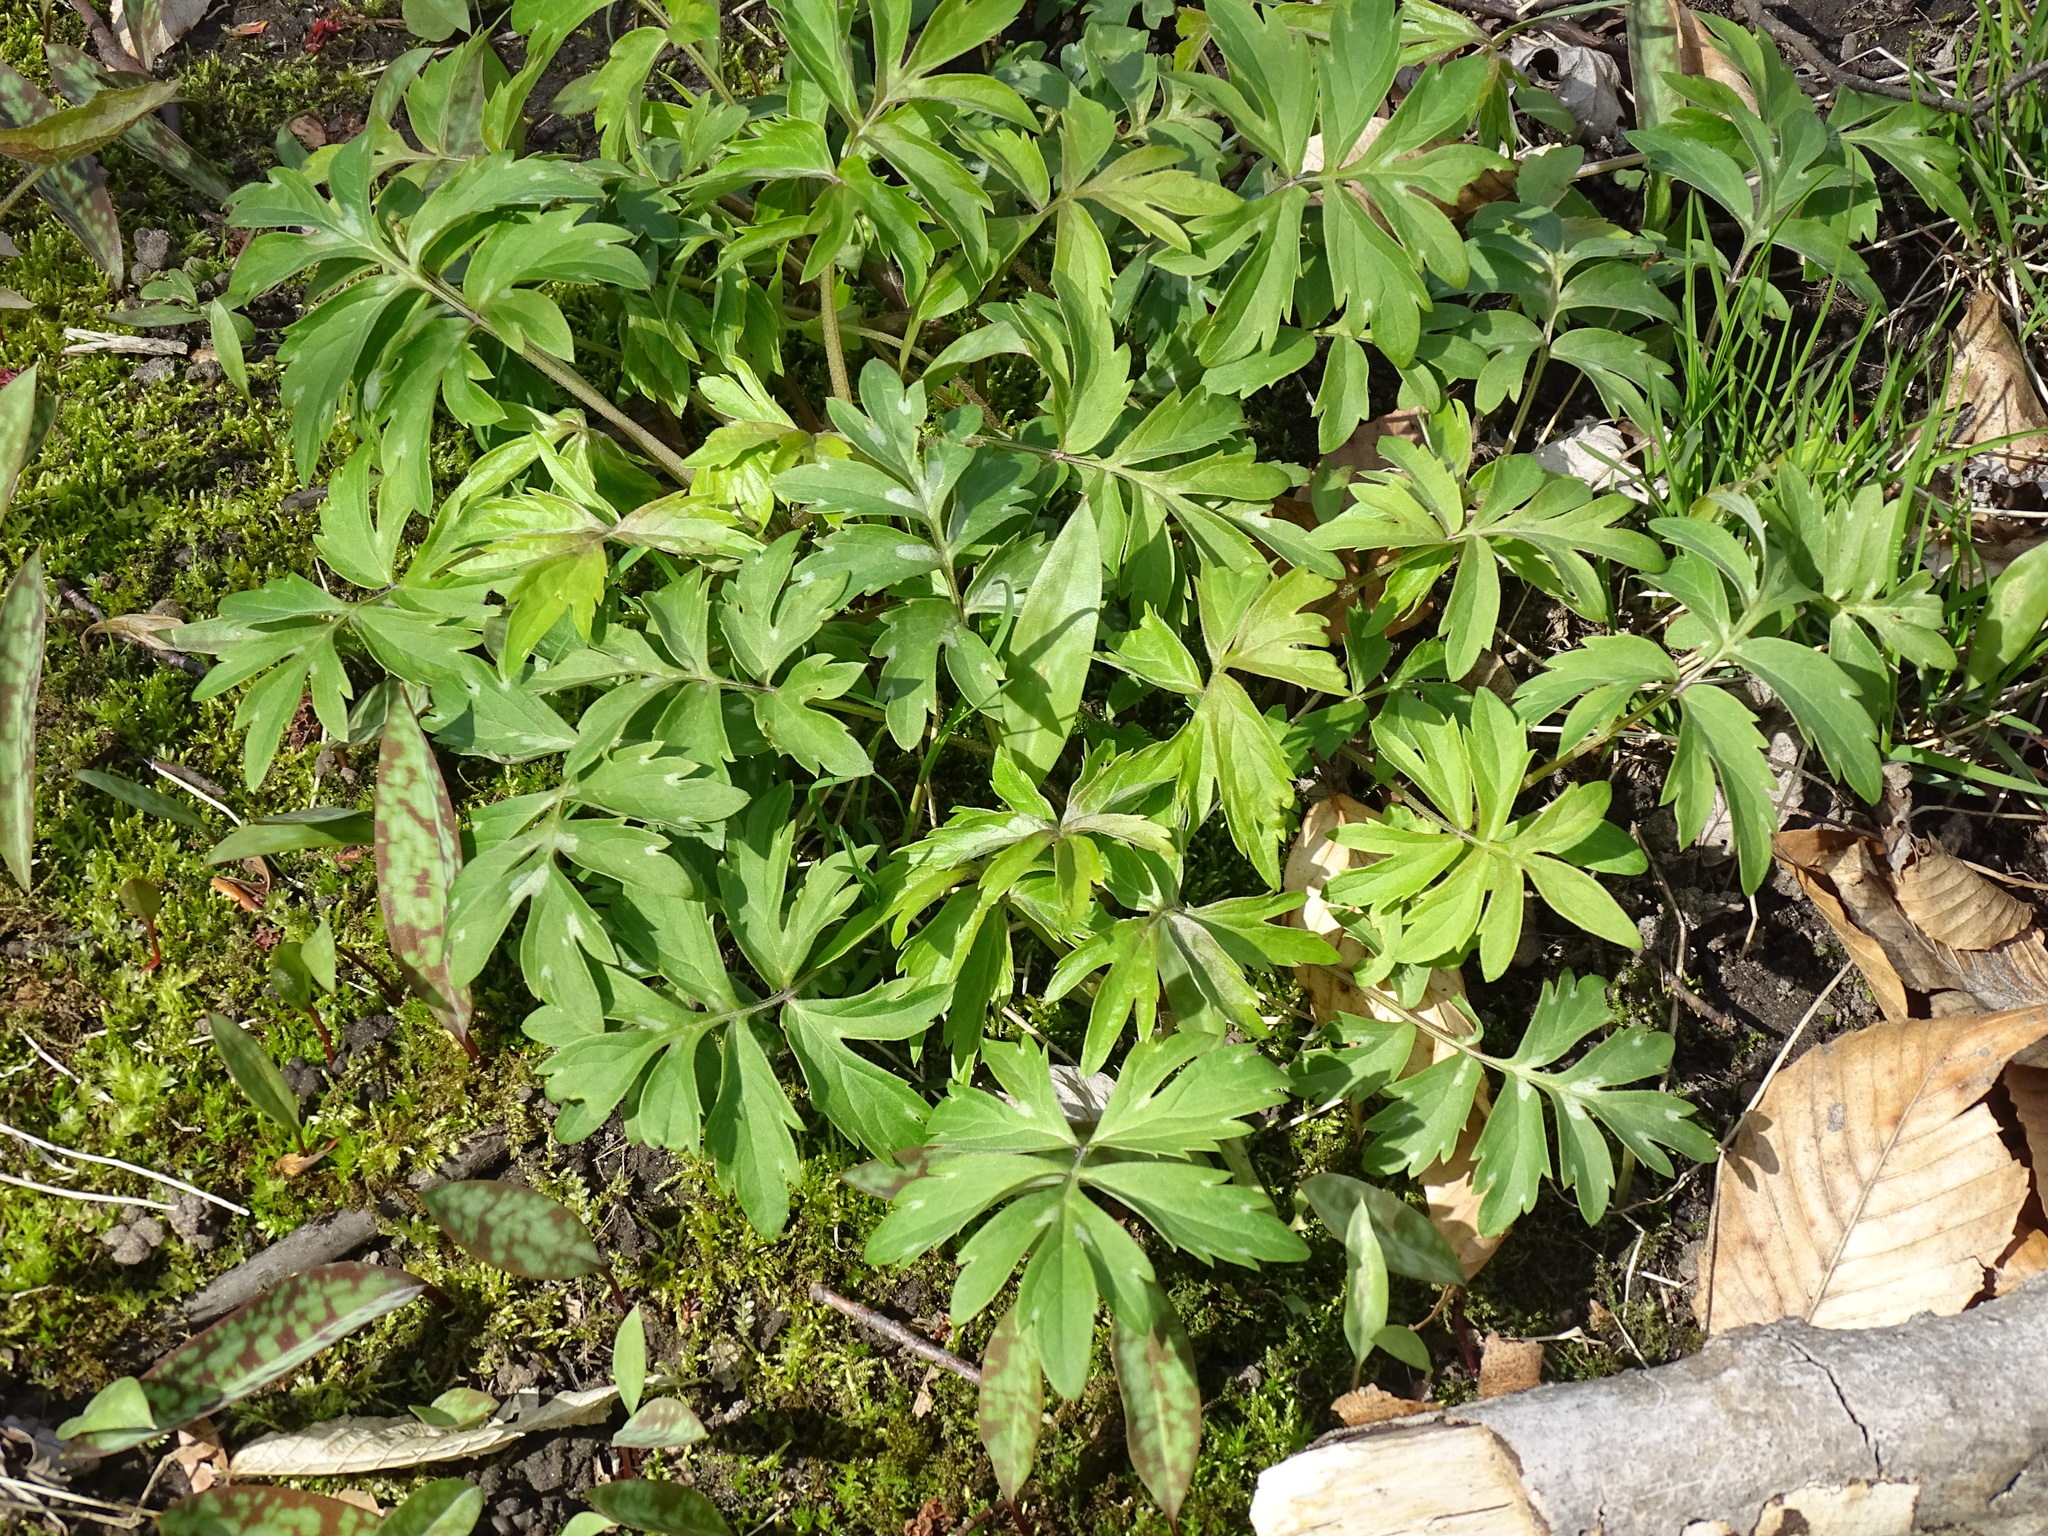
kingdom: Plantae
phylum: Tracheophyta
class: Magnoliopsida
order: Boraginales
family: Hydrophyllaceae
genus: Hydrophyllum
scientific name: Hydrophyllum virginianum
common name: Virginia waterleaf
